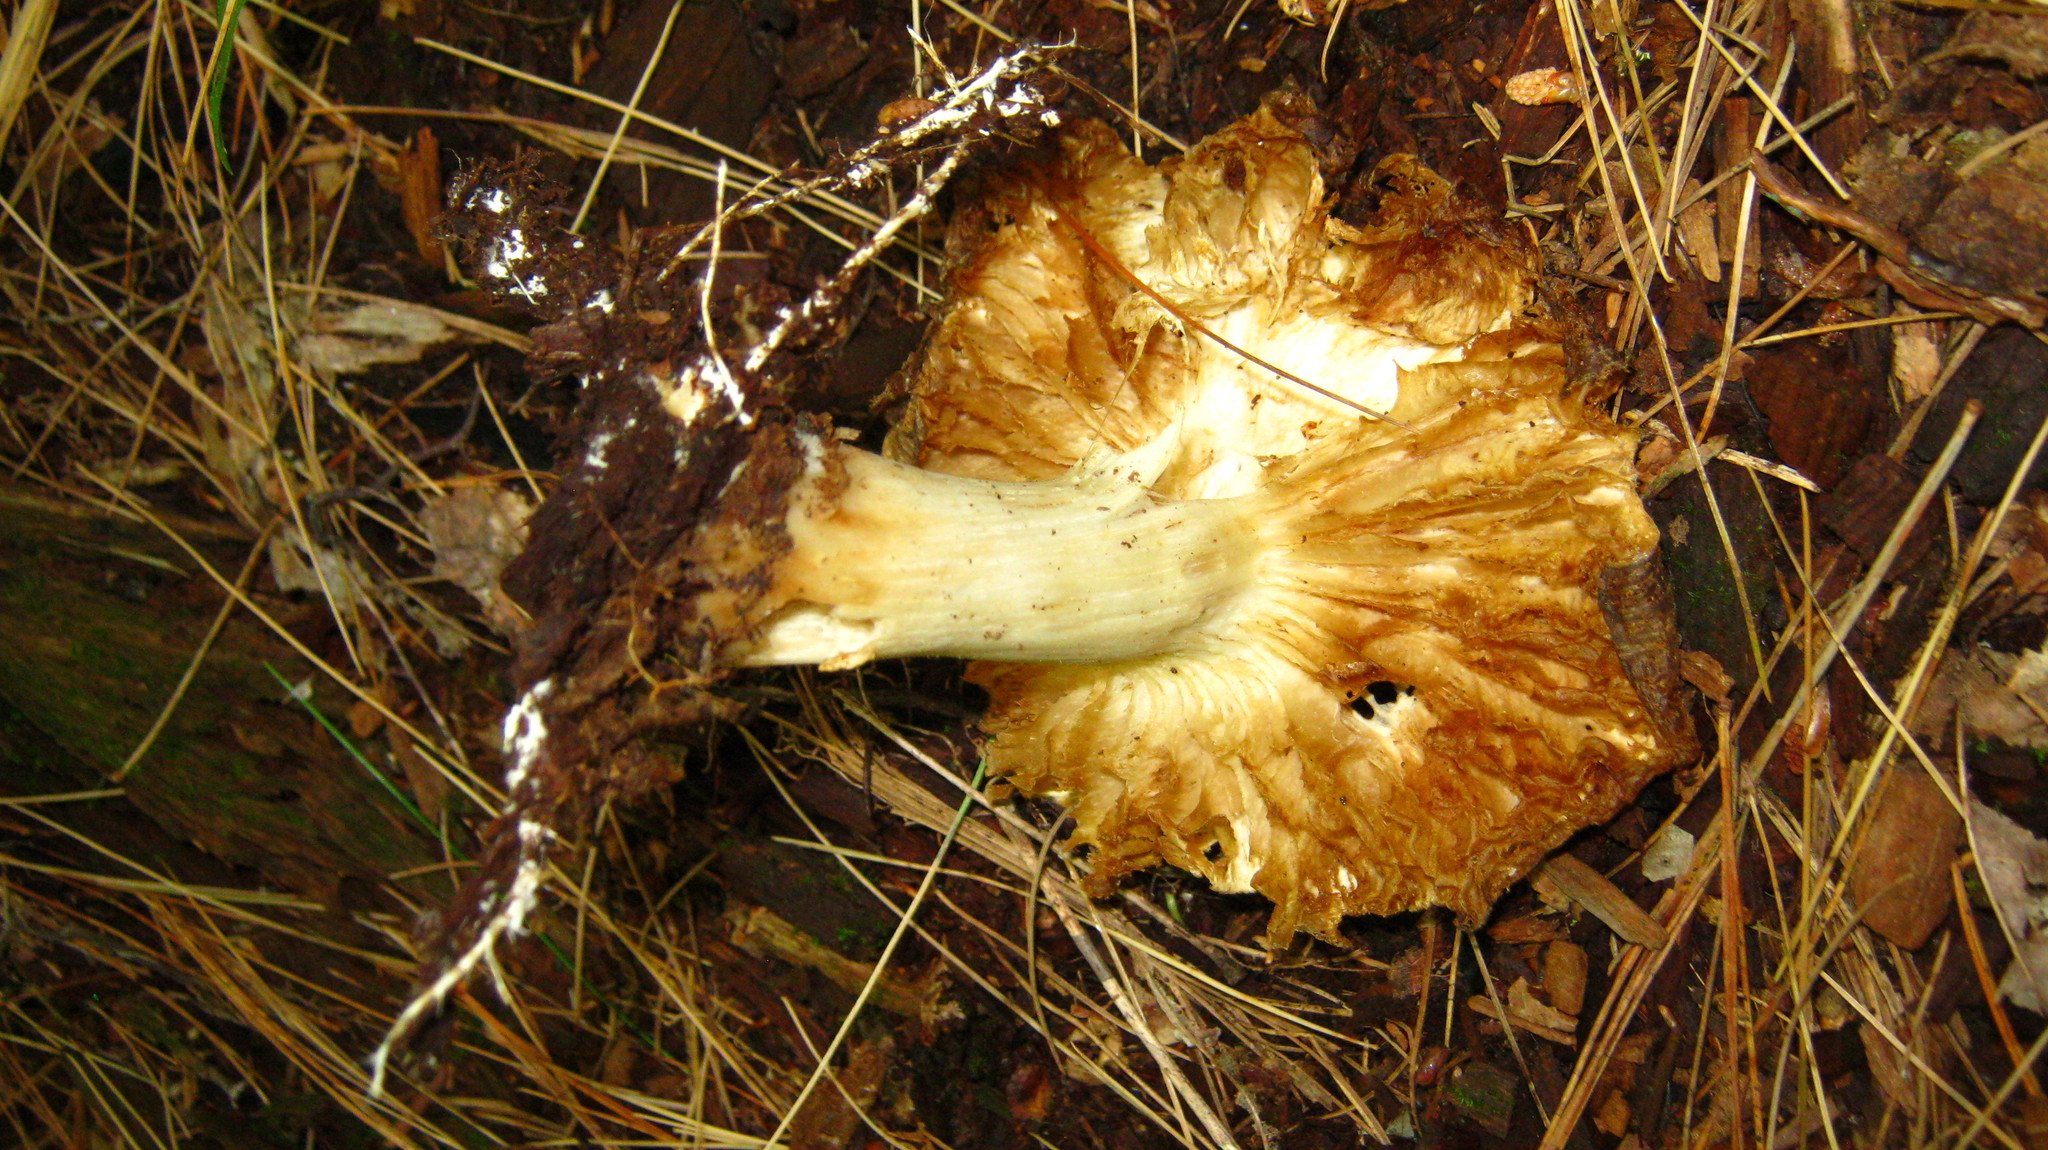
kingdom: Fungi
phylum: Basidiomycota
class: Agaricomycetes
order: Agaricales
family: Tricholomataceae
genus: Megacollybia
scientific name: Megacollybia rodmanii
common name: Eastern american platterful mushroom
